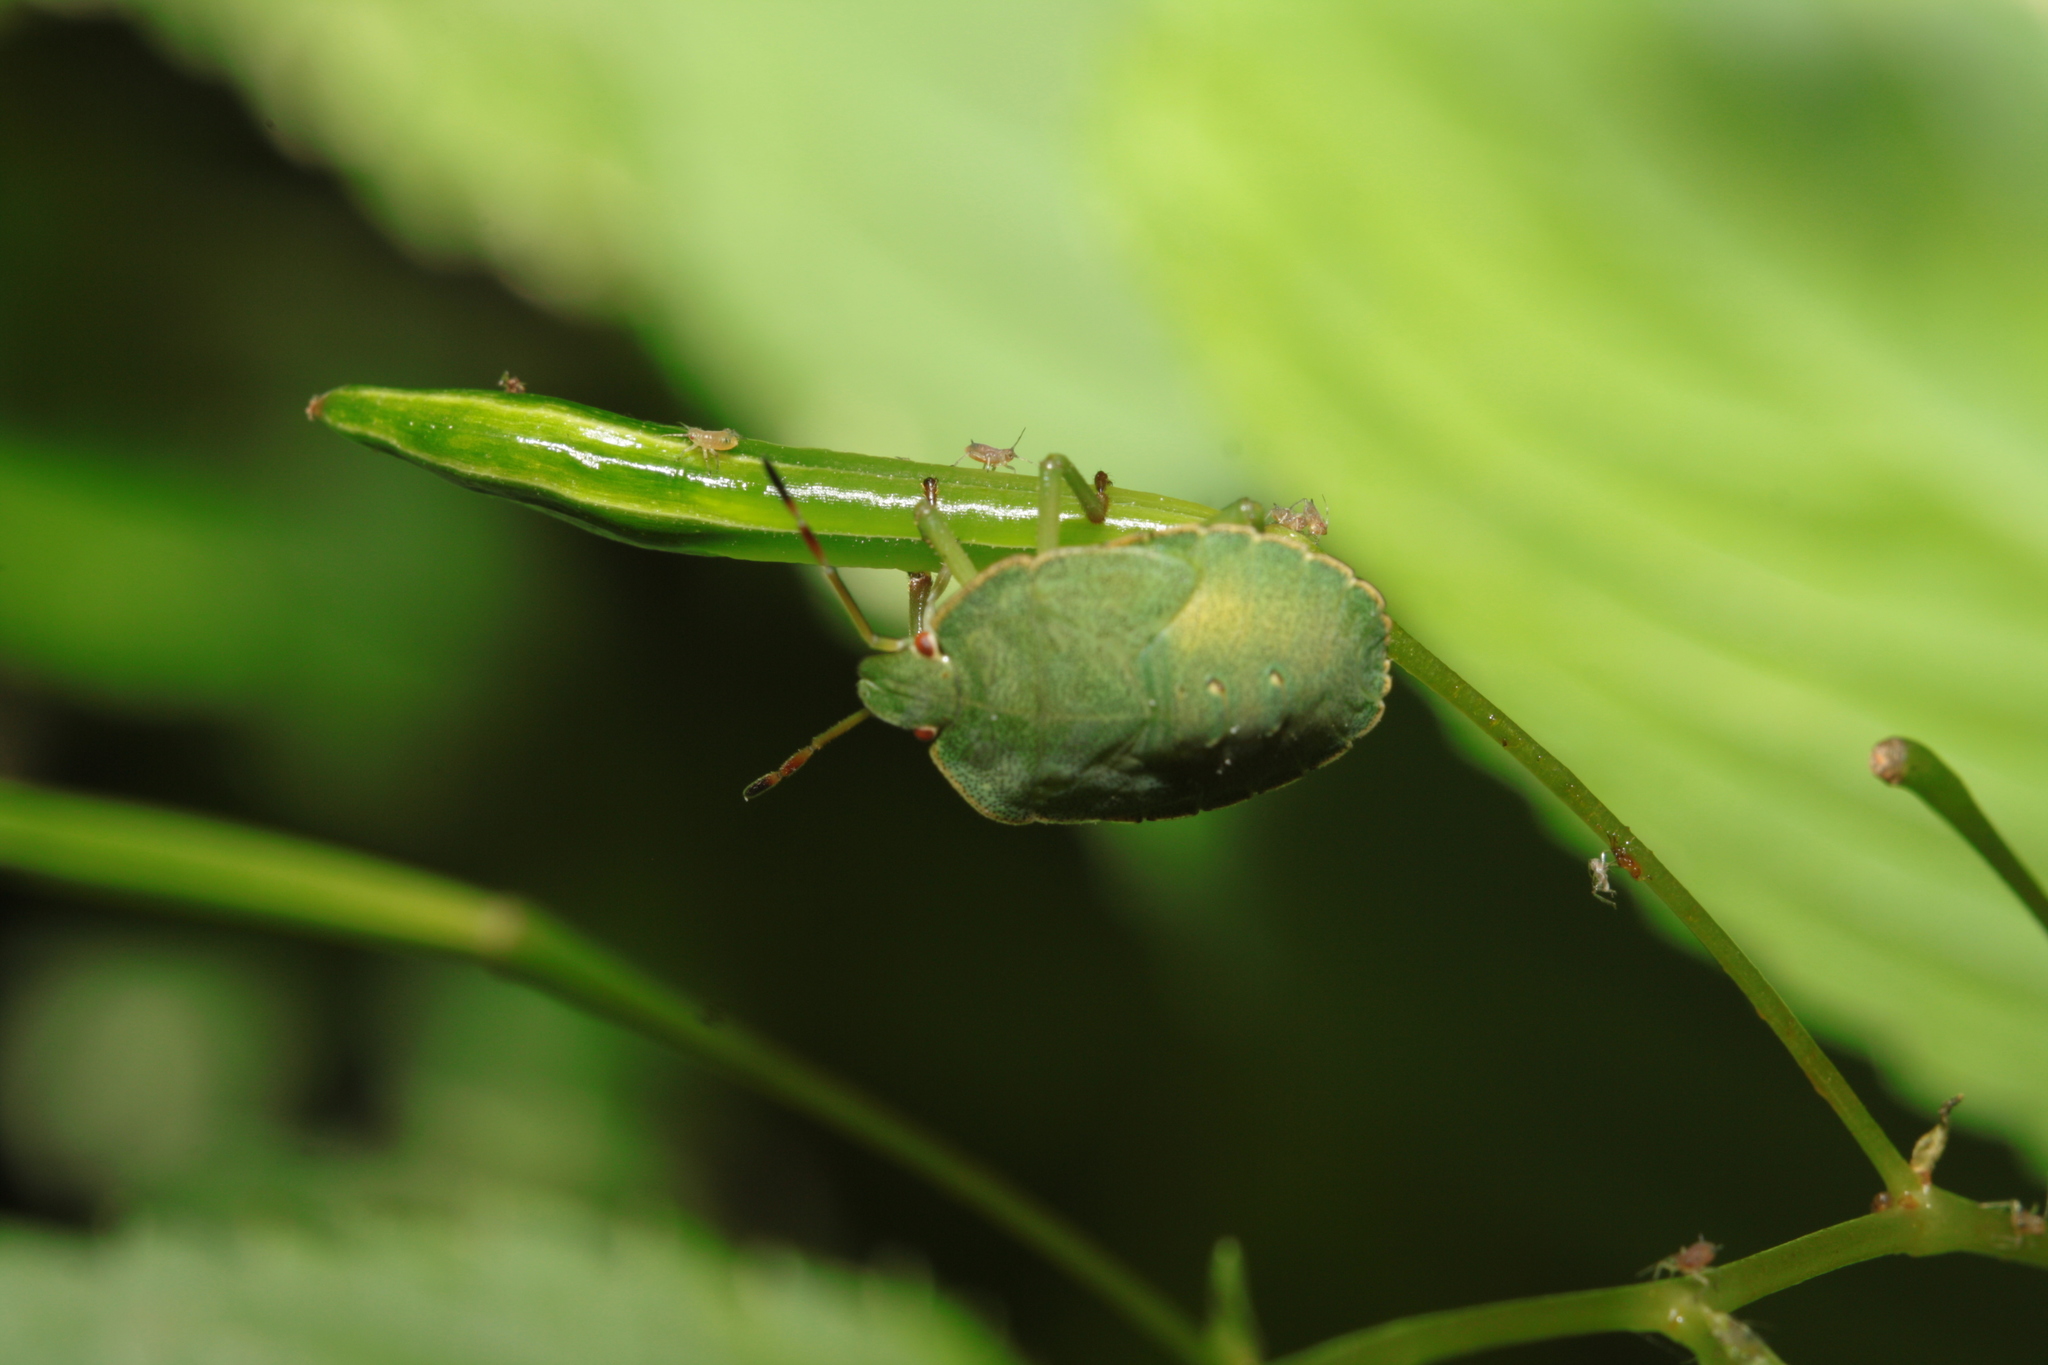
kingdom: Animalia
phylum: Arthropoda
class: Insecta
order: Hemiptera
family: Pentatomidae
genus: Palomena
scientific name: Palomena prasina
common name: Green shieldbug
